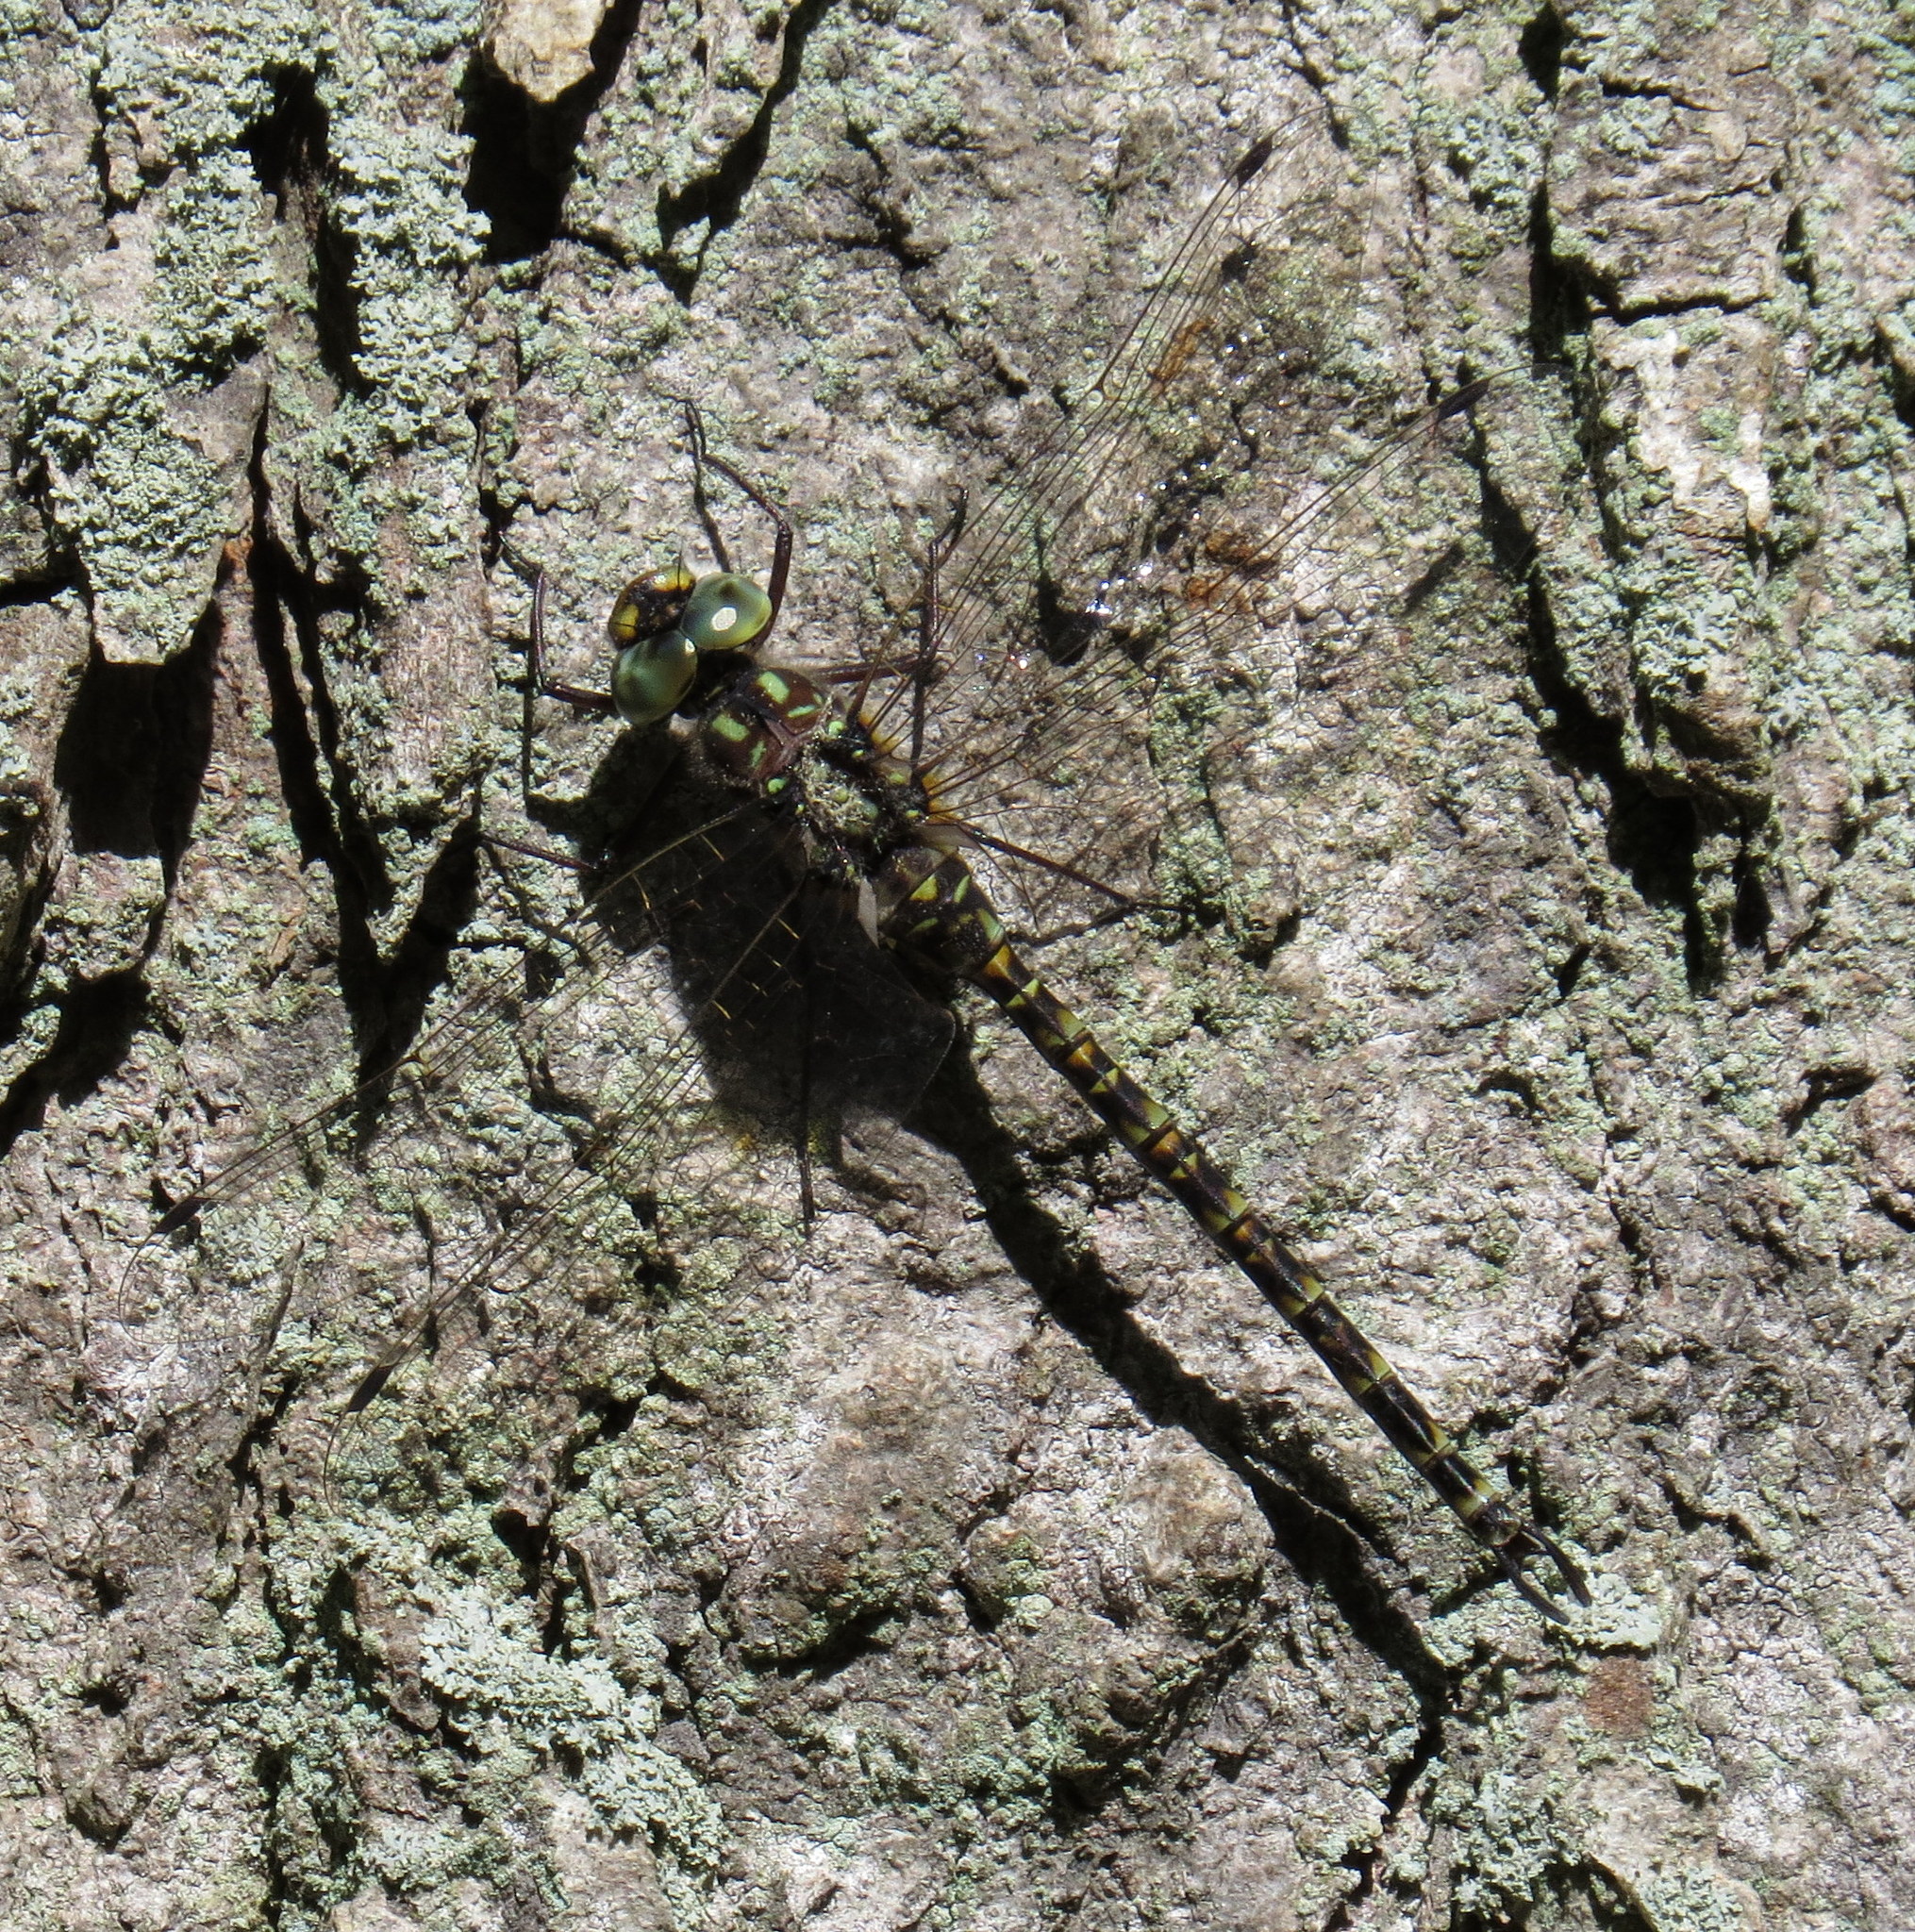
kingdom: Animalia
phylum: Arthropoda
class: Insecta
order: Odonata
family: Aeshnidae
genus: Gomphaeschna
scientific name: Gomphaeschna furcillata
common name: Harlequin darner
